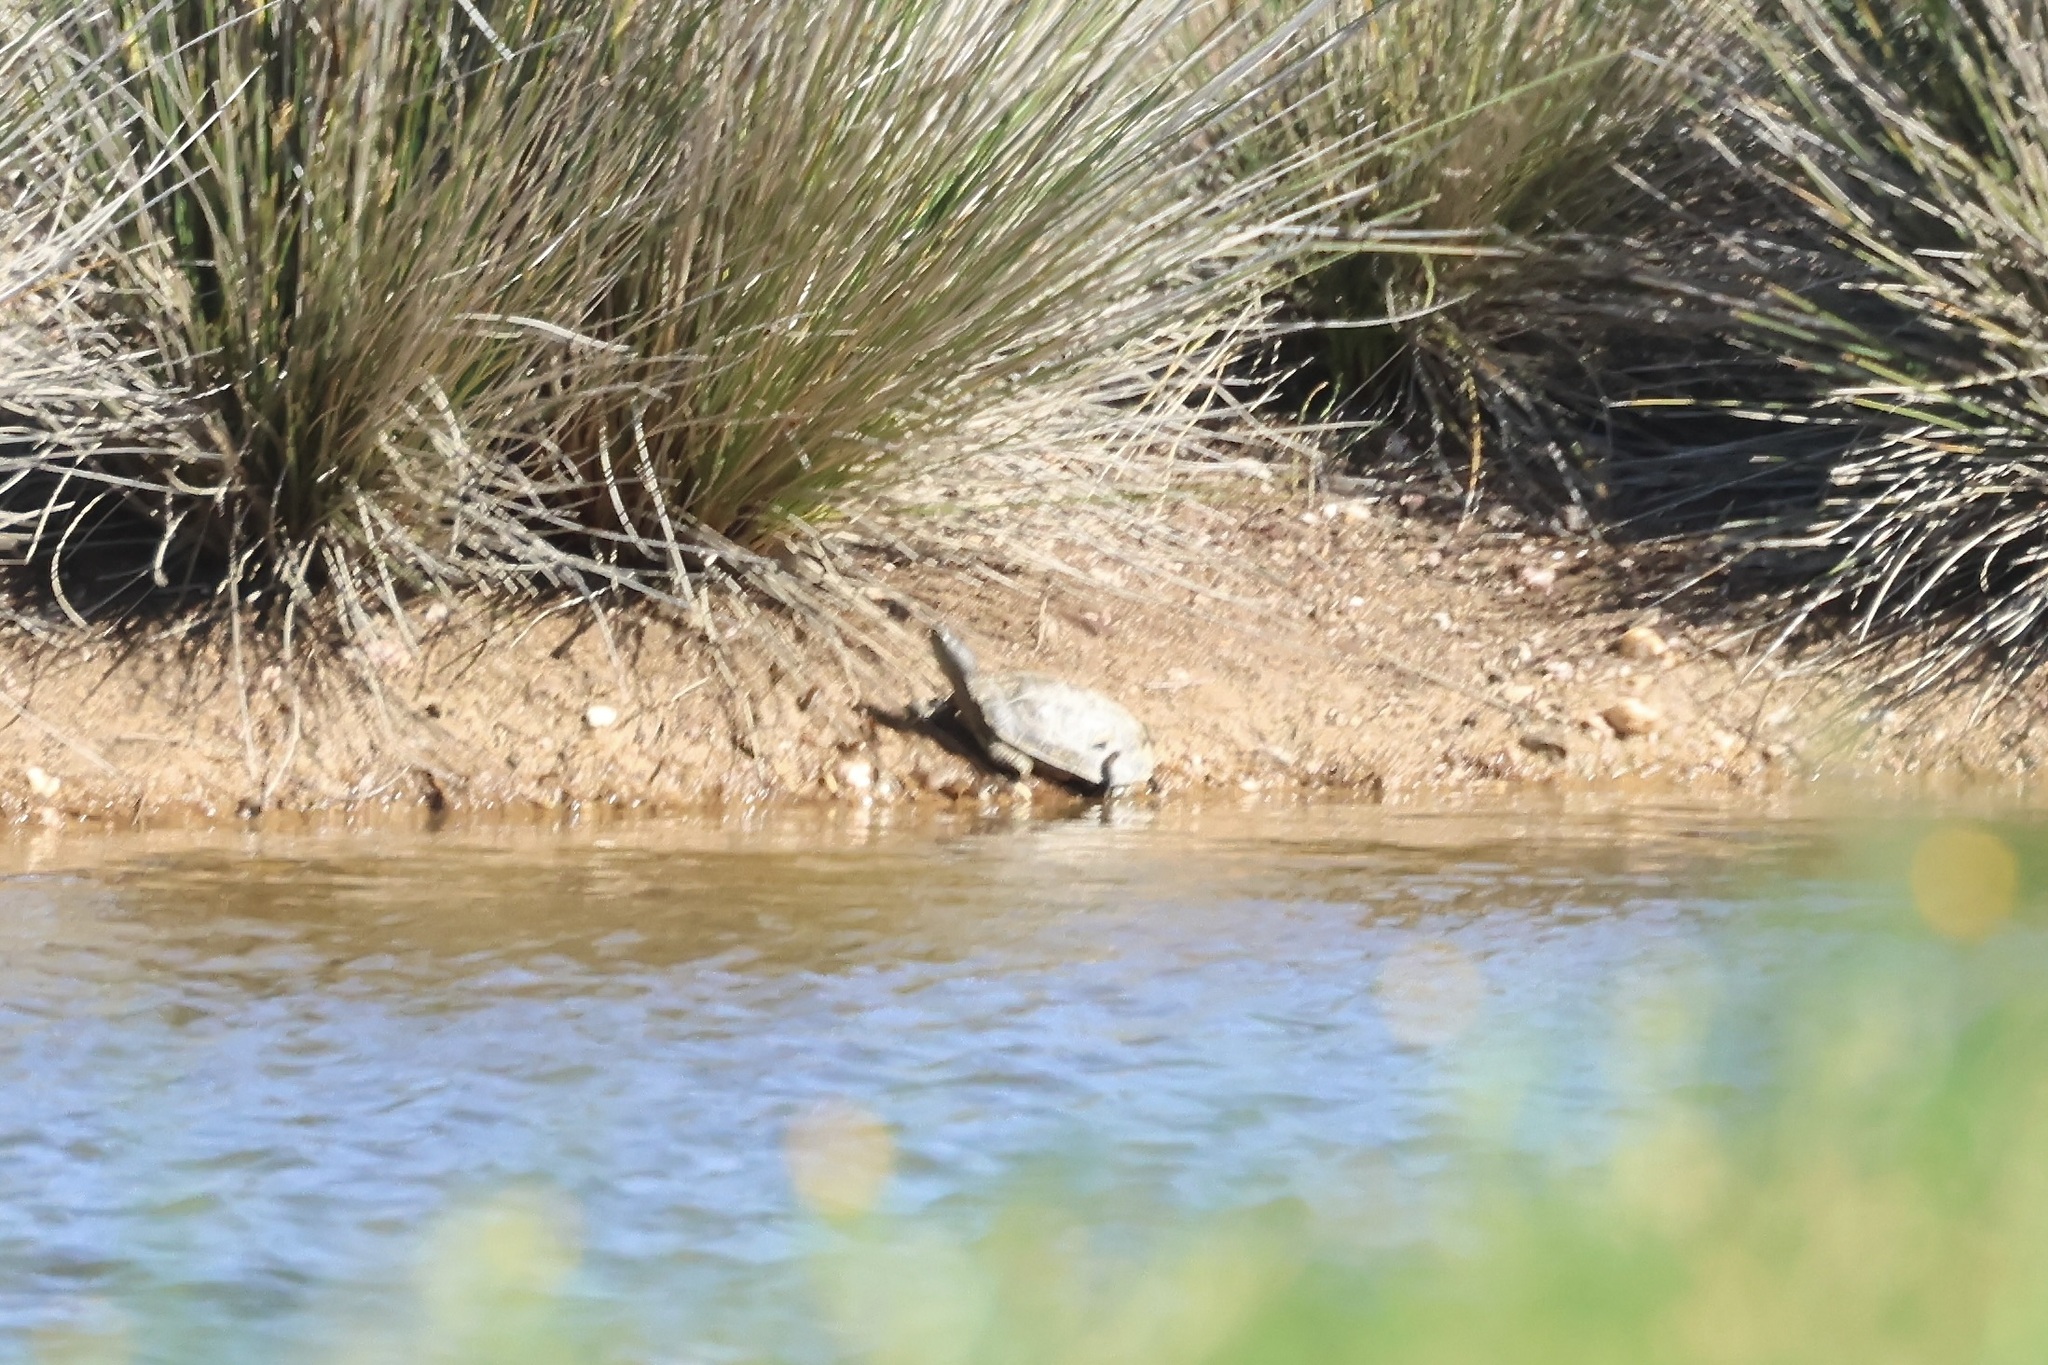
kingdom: Animalia
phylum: Chordata
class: Testudines
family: Geoemydidae
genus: Mauremys
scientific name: Mauremys leprosa
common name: Mediterranean pond turtle
